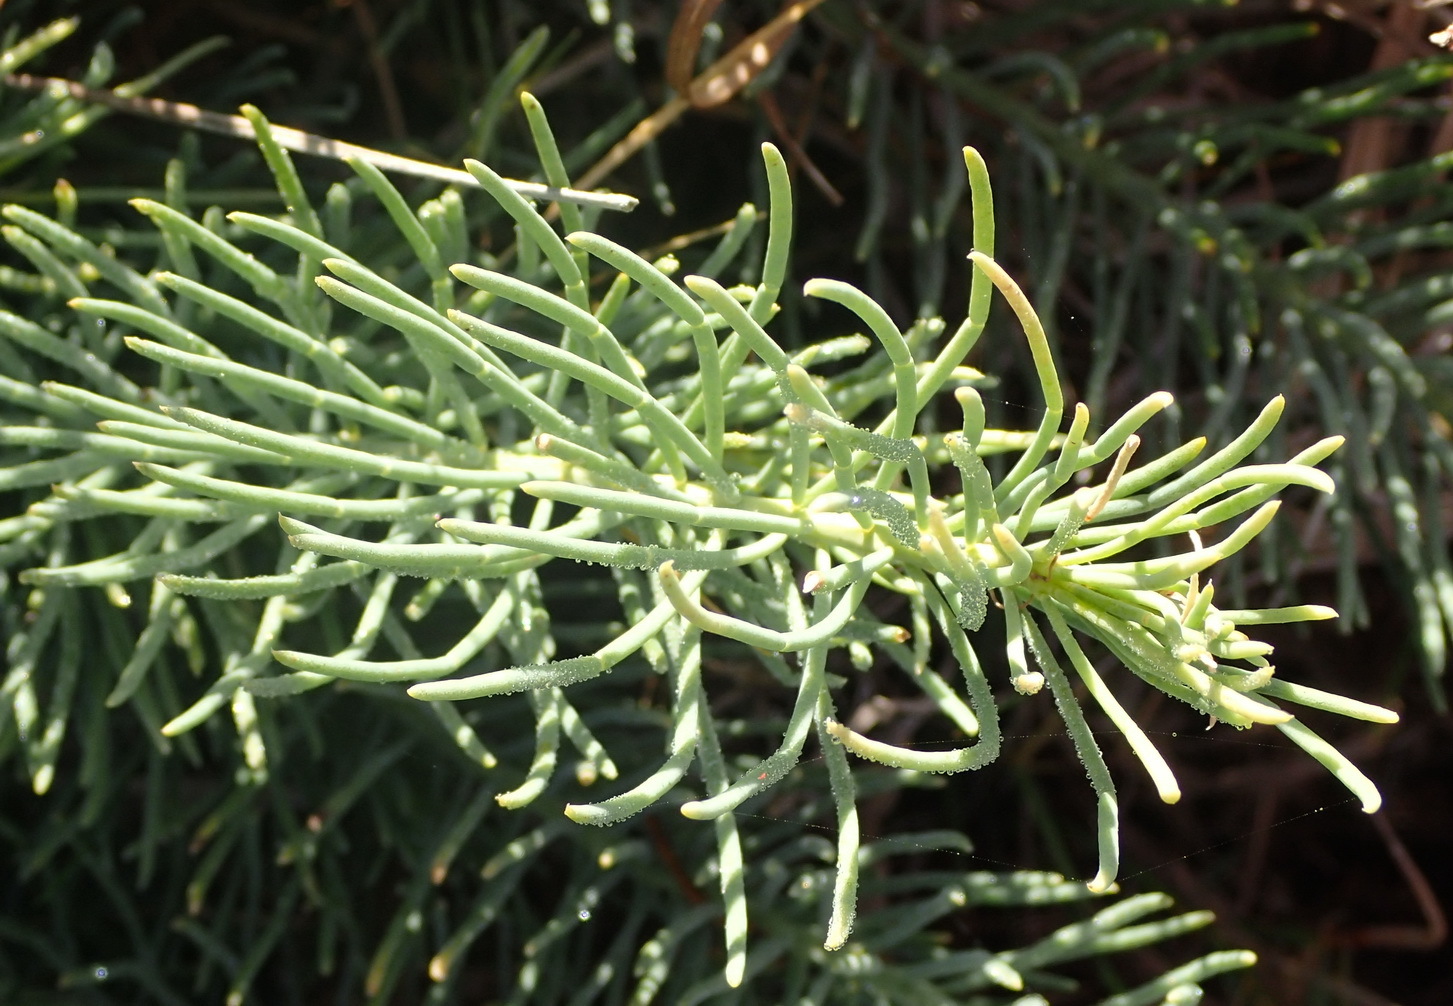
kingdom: Plantae
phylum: Tracheophyta
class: Magnoliopsida
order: Fabales
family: Fabaceae
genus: Lebeckia
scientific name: Lebeckia gracilis
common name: Slender ganna
